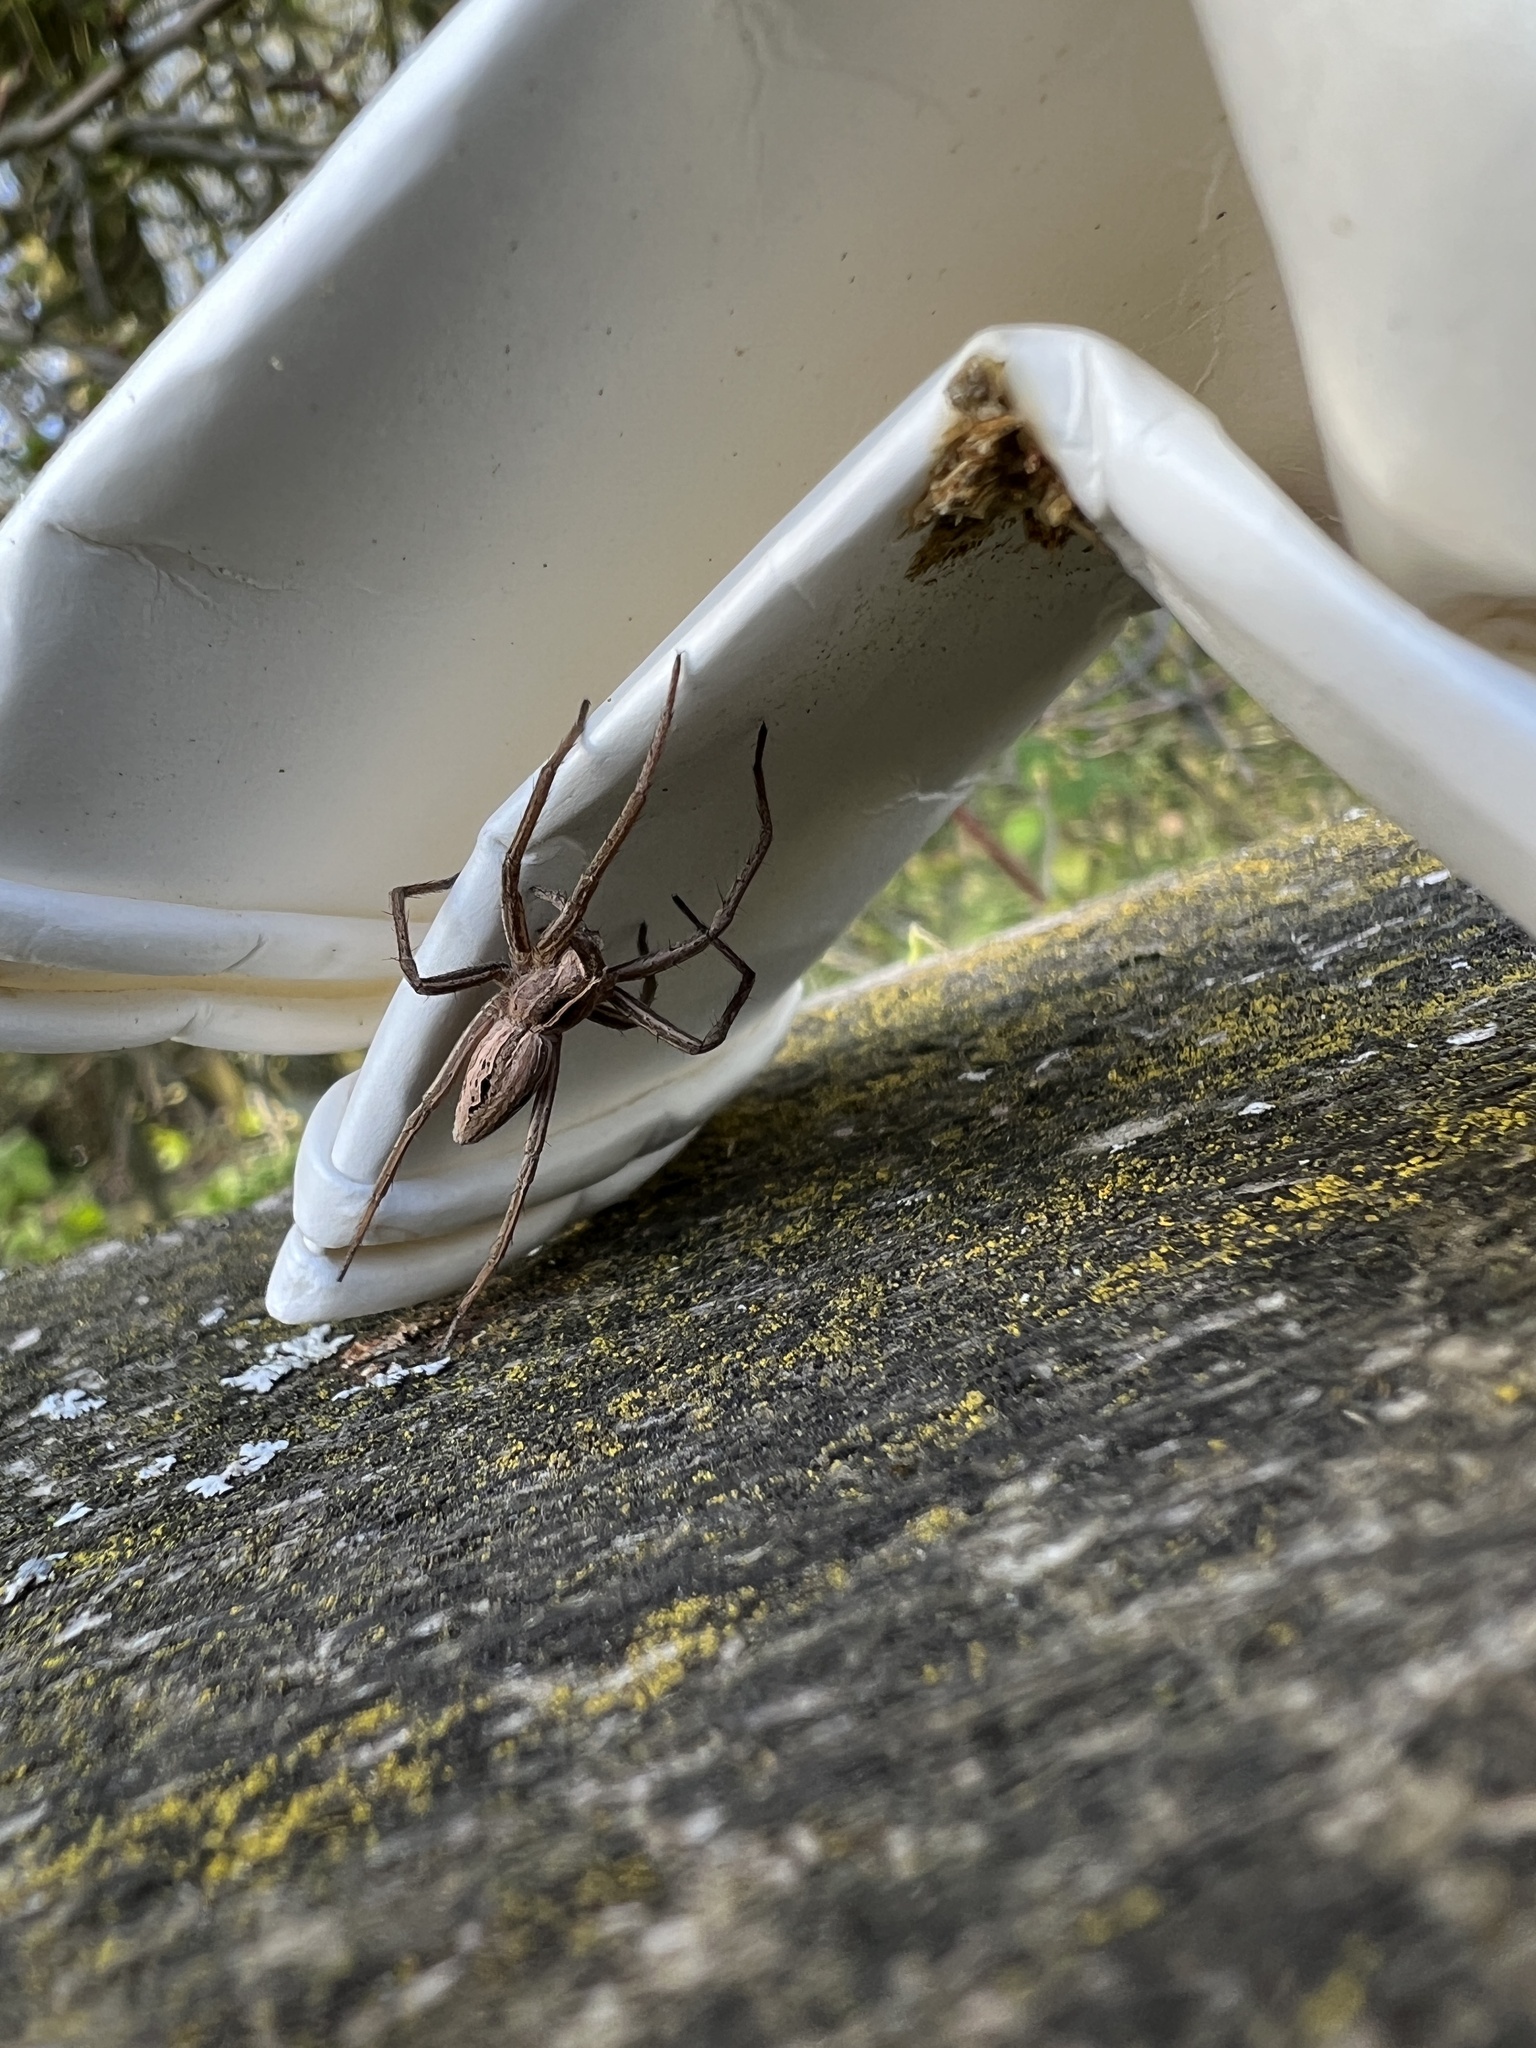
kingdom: Animalia
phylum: Arthropoda
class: Arachnida
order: Araneae
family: Pisauridae
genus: Pisaura
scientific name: Pisaura mirabilis
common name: Tent spider
